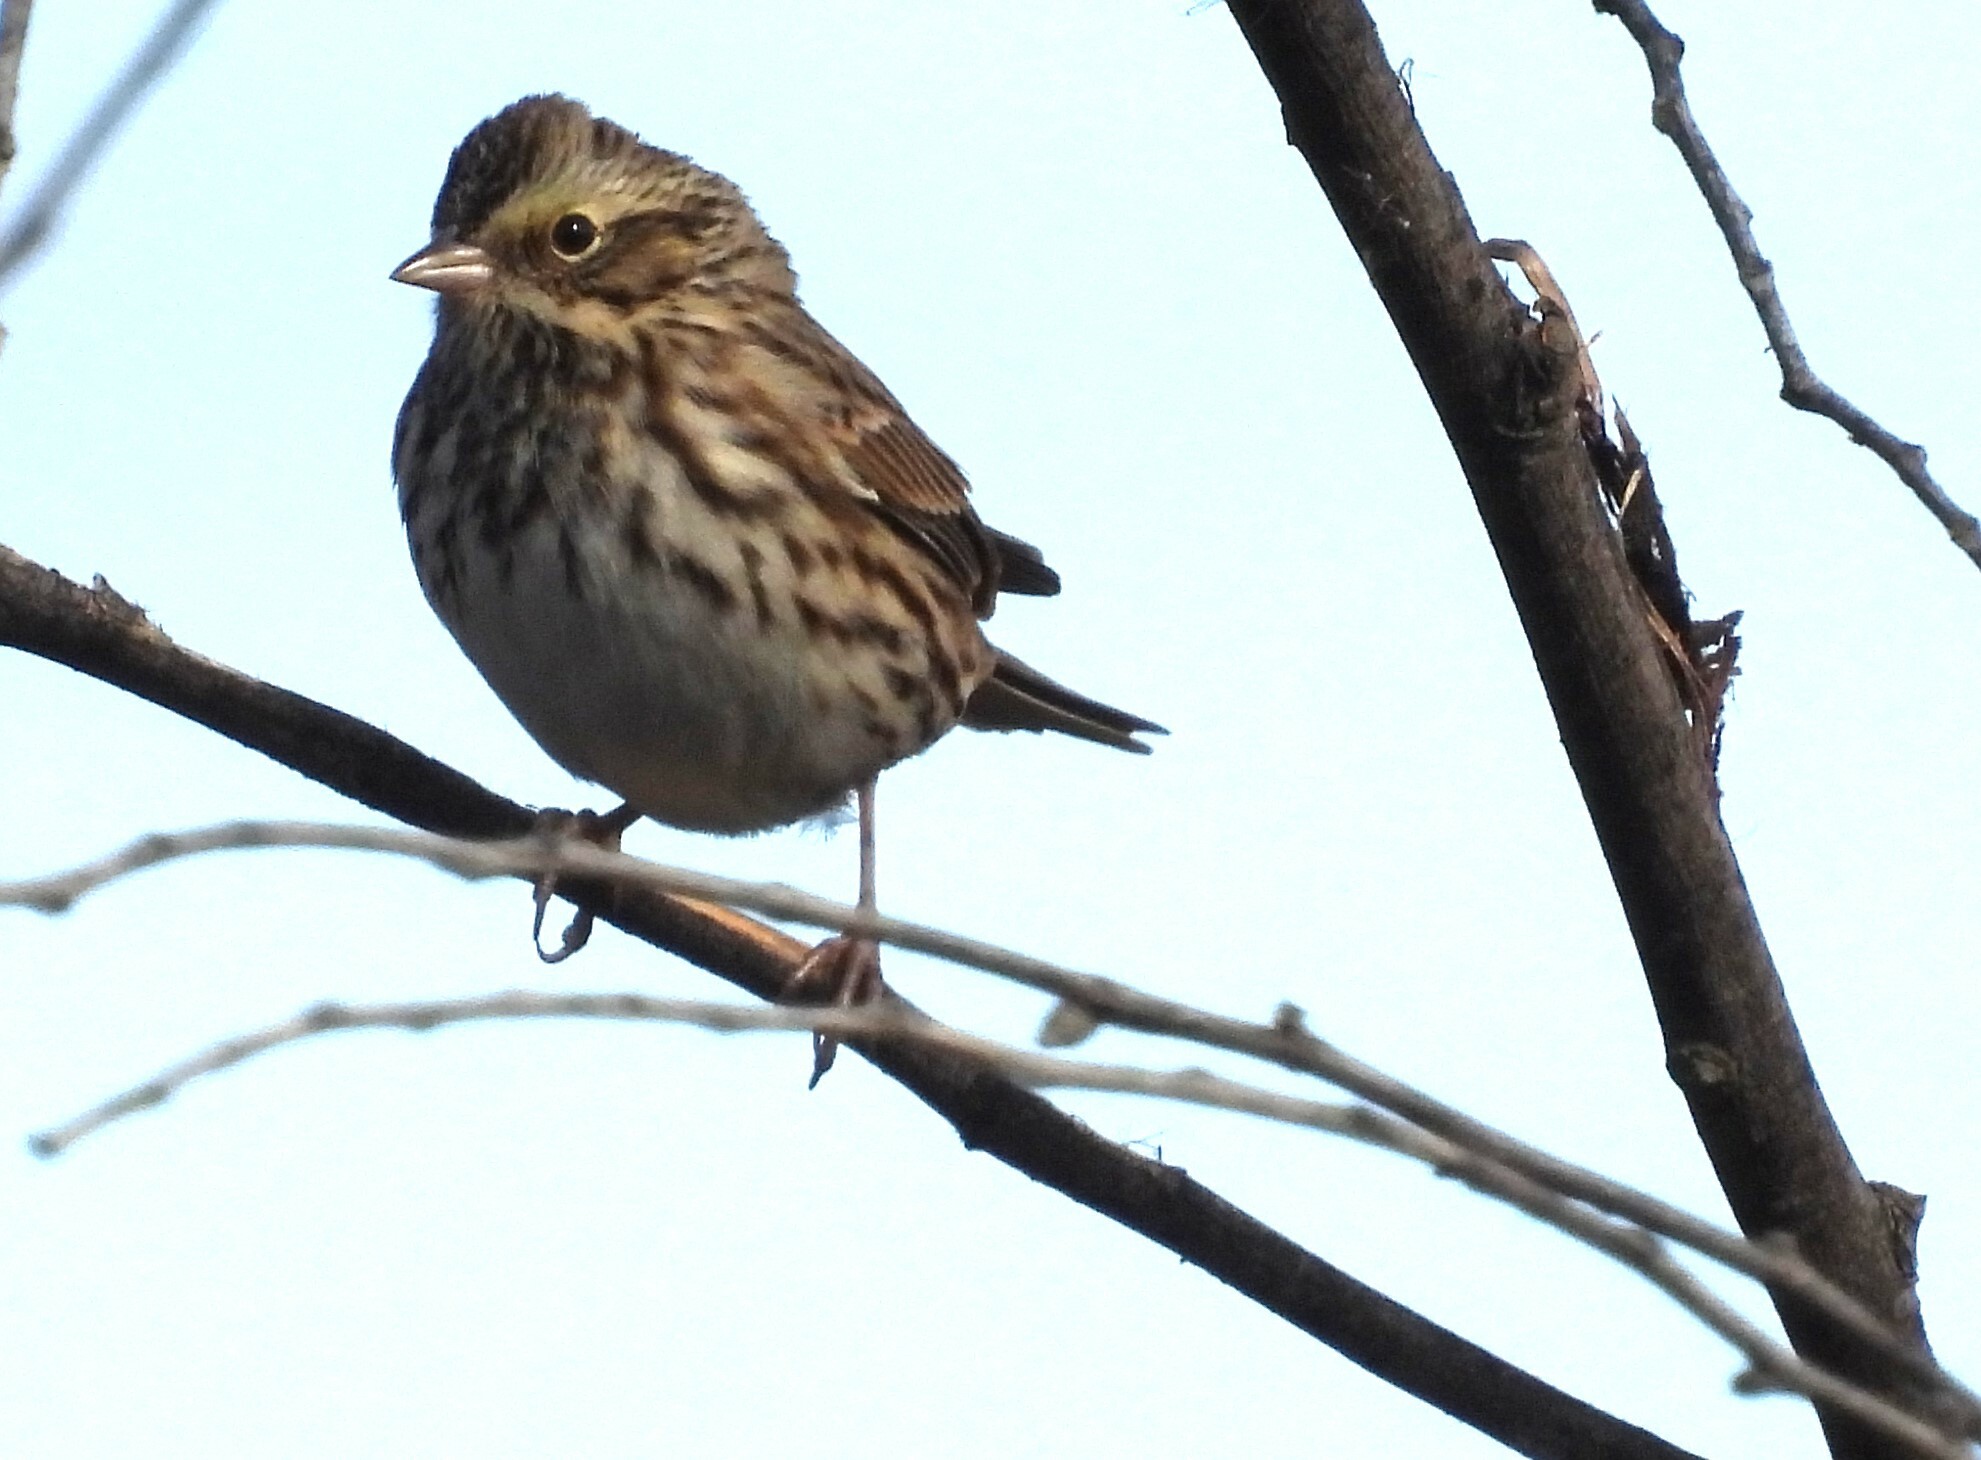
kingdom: Animalia
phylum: Chordata
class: Aves
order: Passeriformes
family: Passerellidae
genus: Passerculus
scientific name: Passerculus sandwichensis
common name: Savannah sparrow
